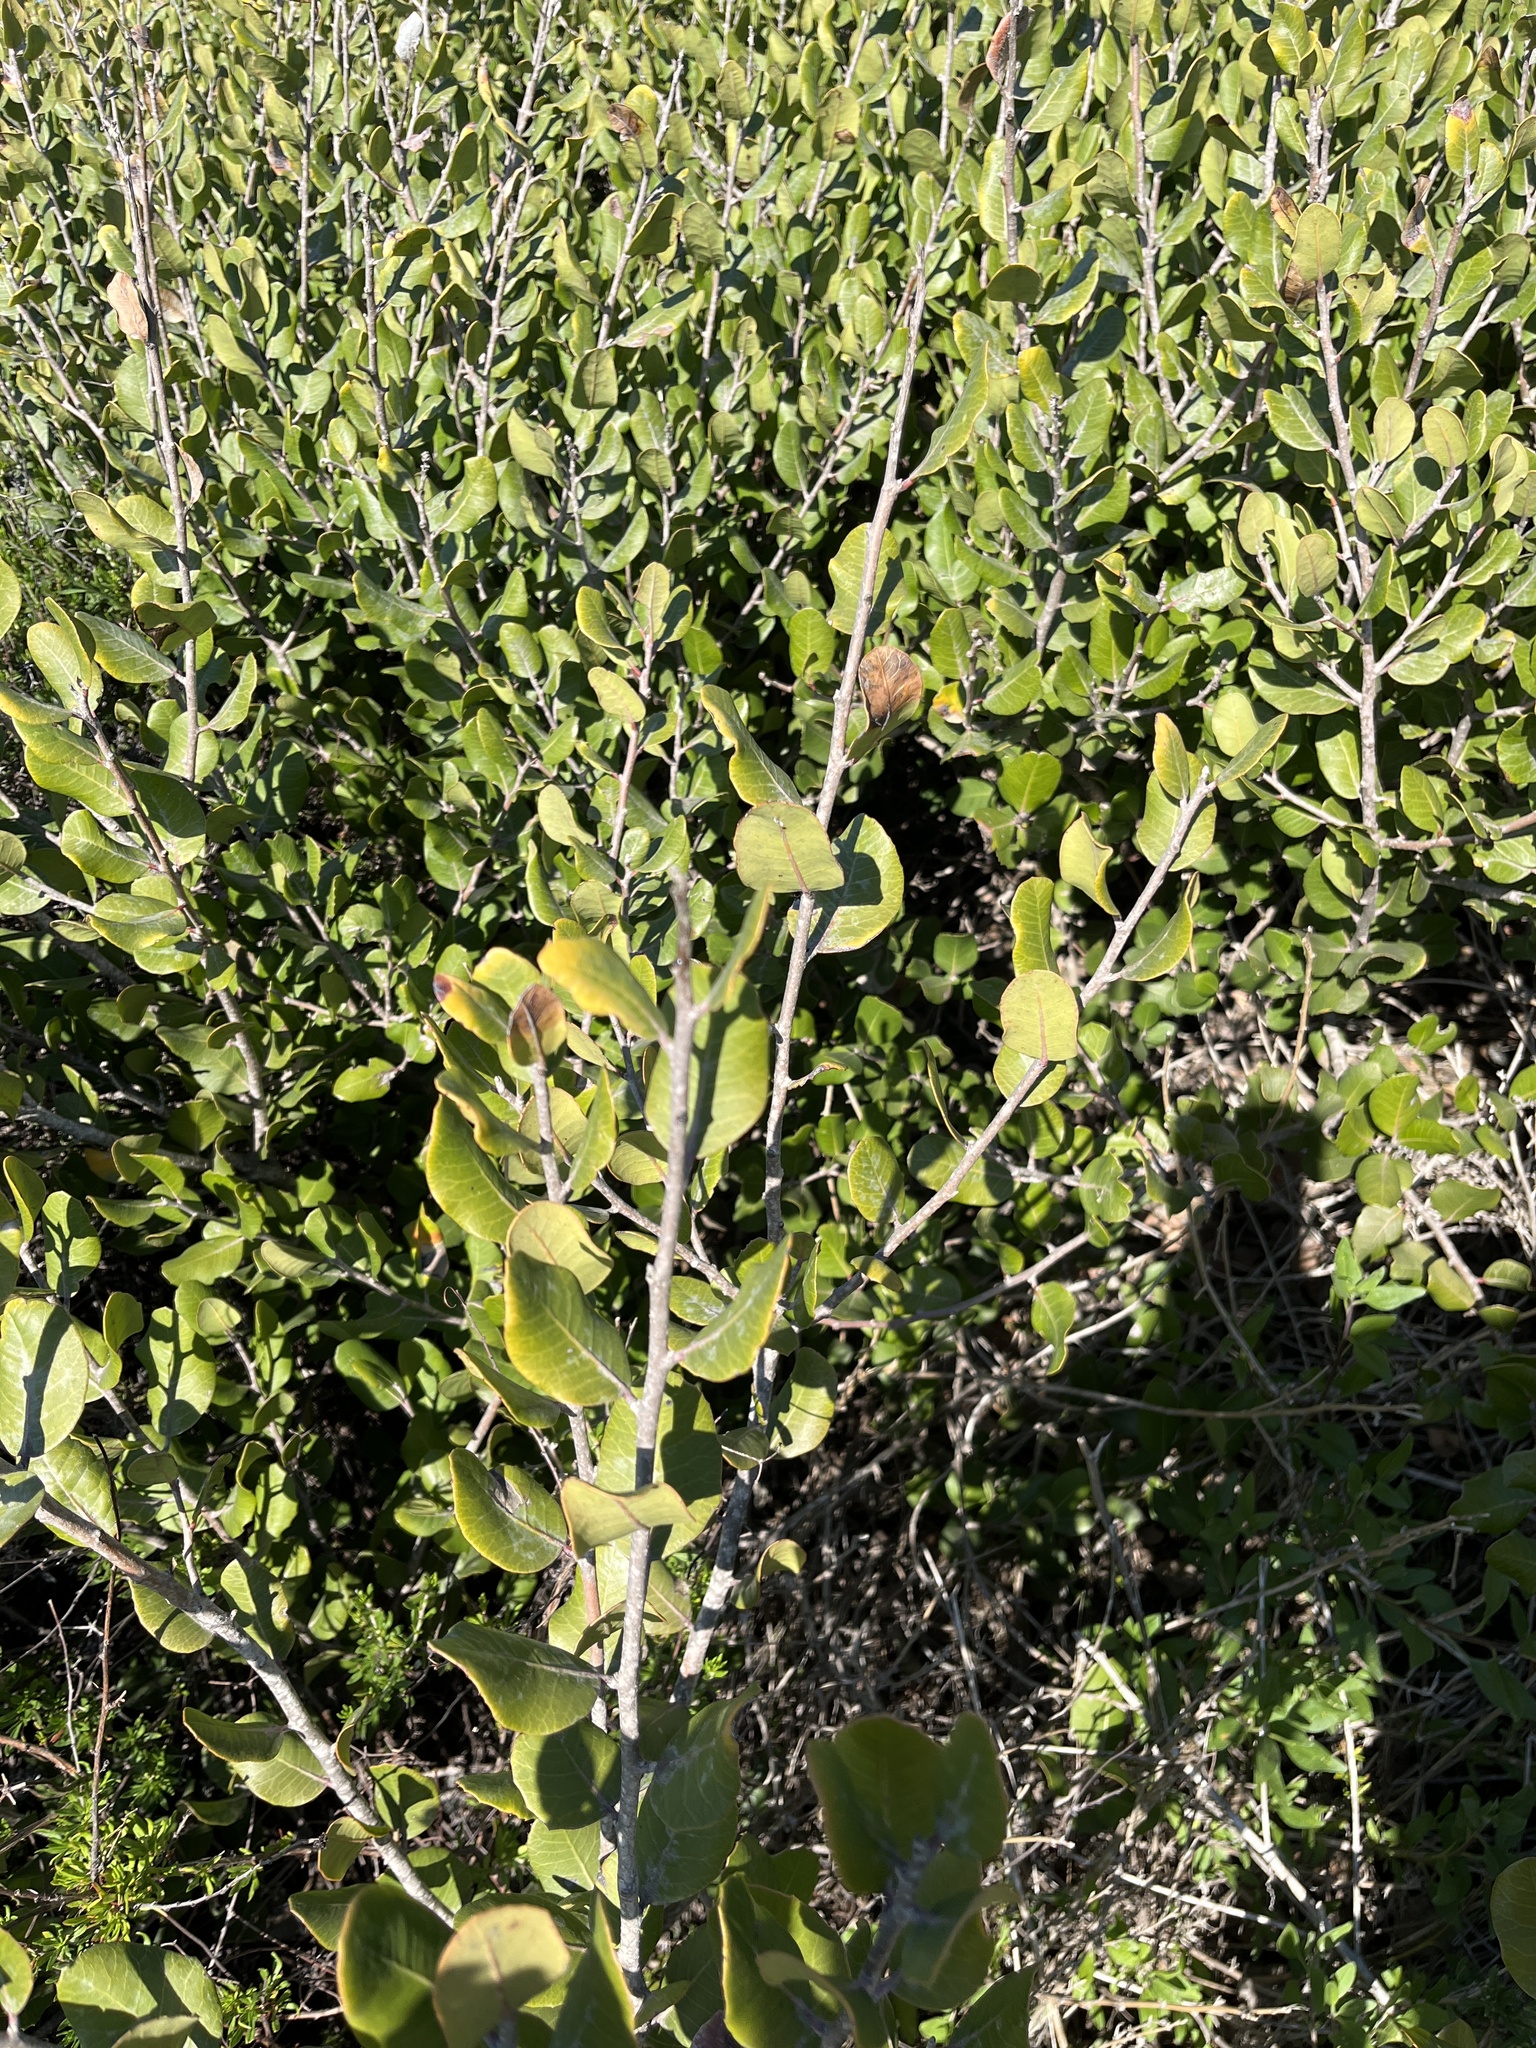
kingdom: Plantae
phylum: Tracheophyta
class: Magnoliopsida
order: Sapindales
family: Anacardiaceae
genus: Rhus
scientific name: Rhus integrifolia
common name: Lemonade sumac
